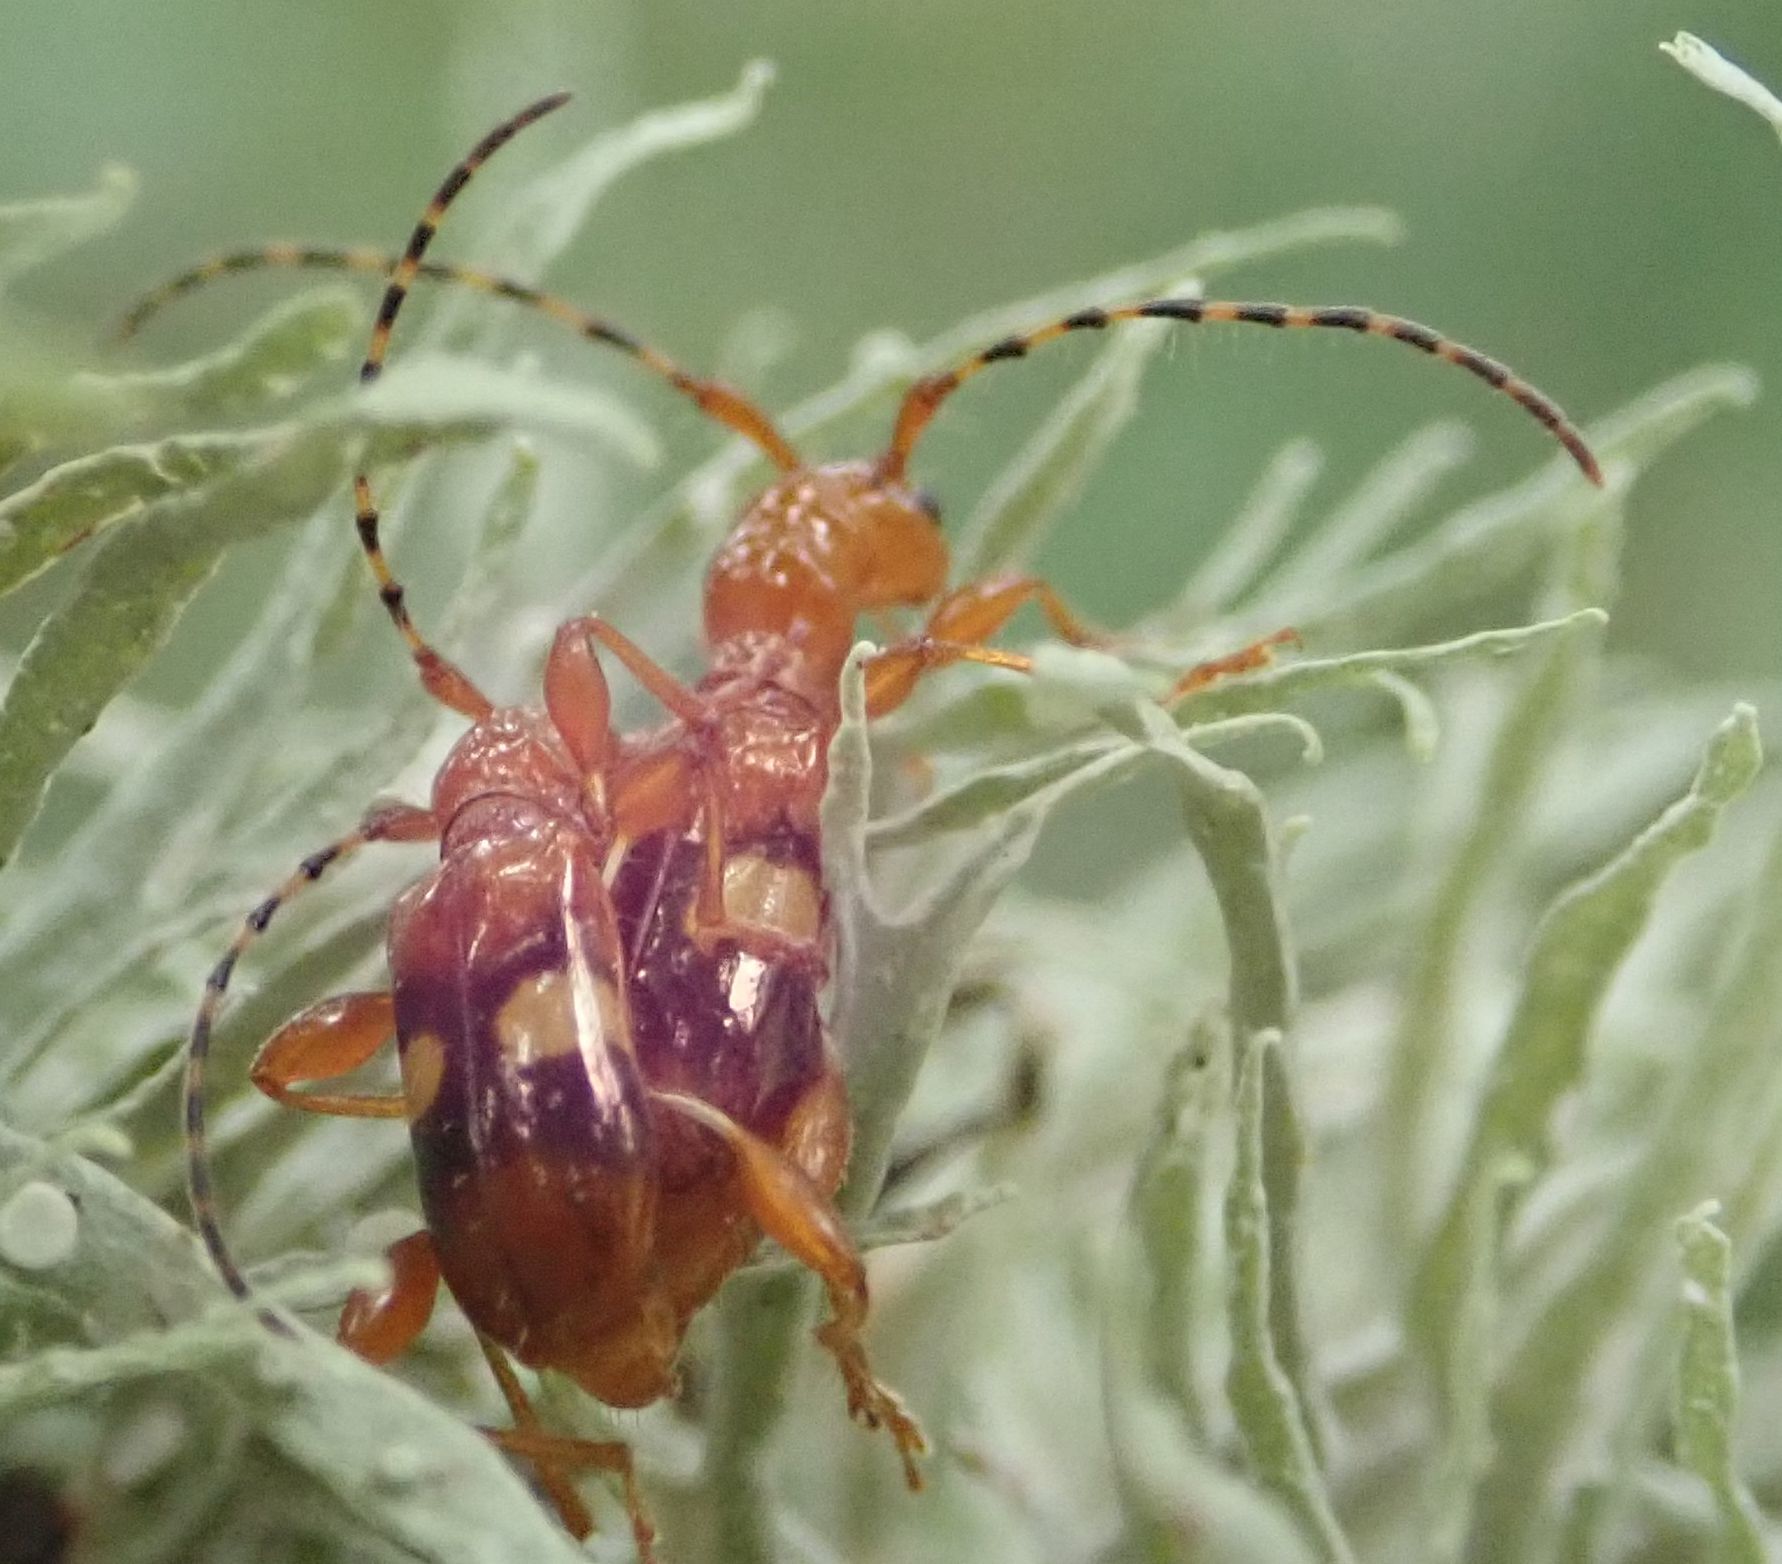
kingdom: Animalia
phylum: Arthropoda
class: Insecta
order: Coleoptera
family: Cerambycidae
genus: Zorion
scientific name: Zorion australe
